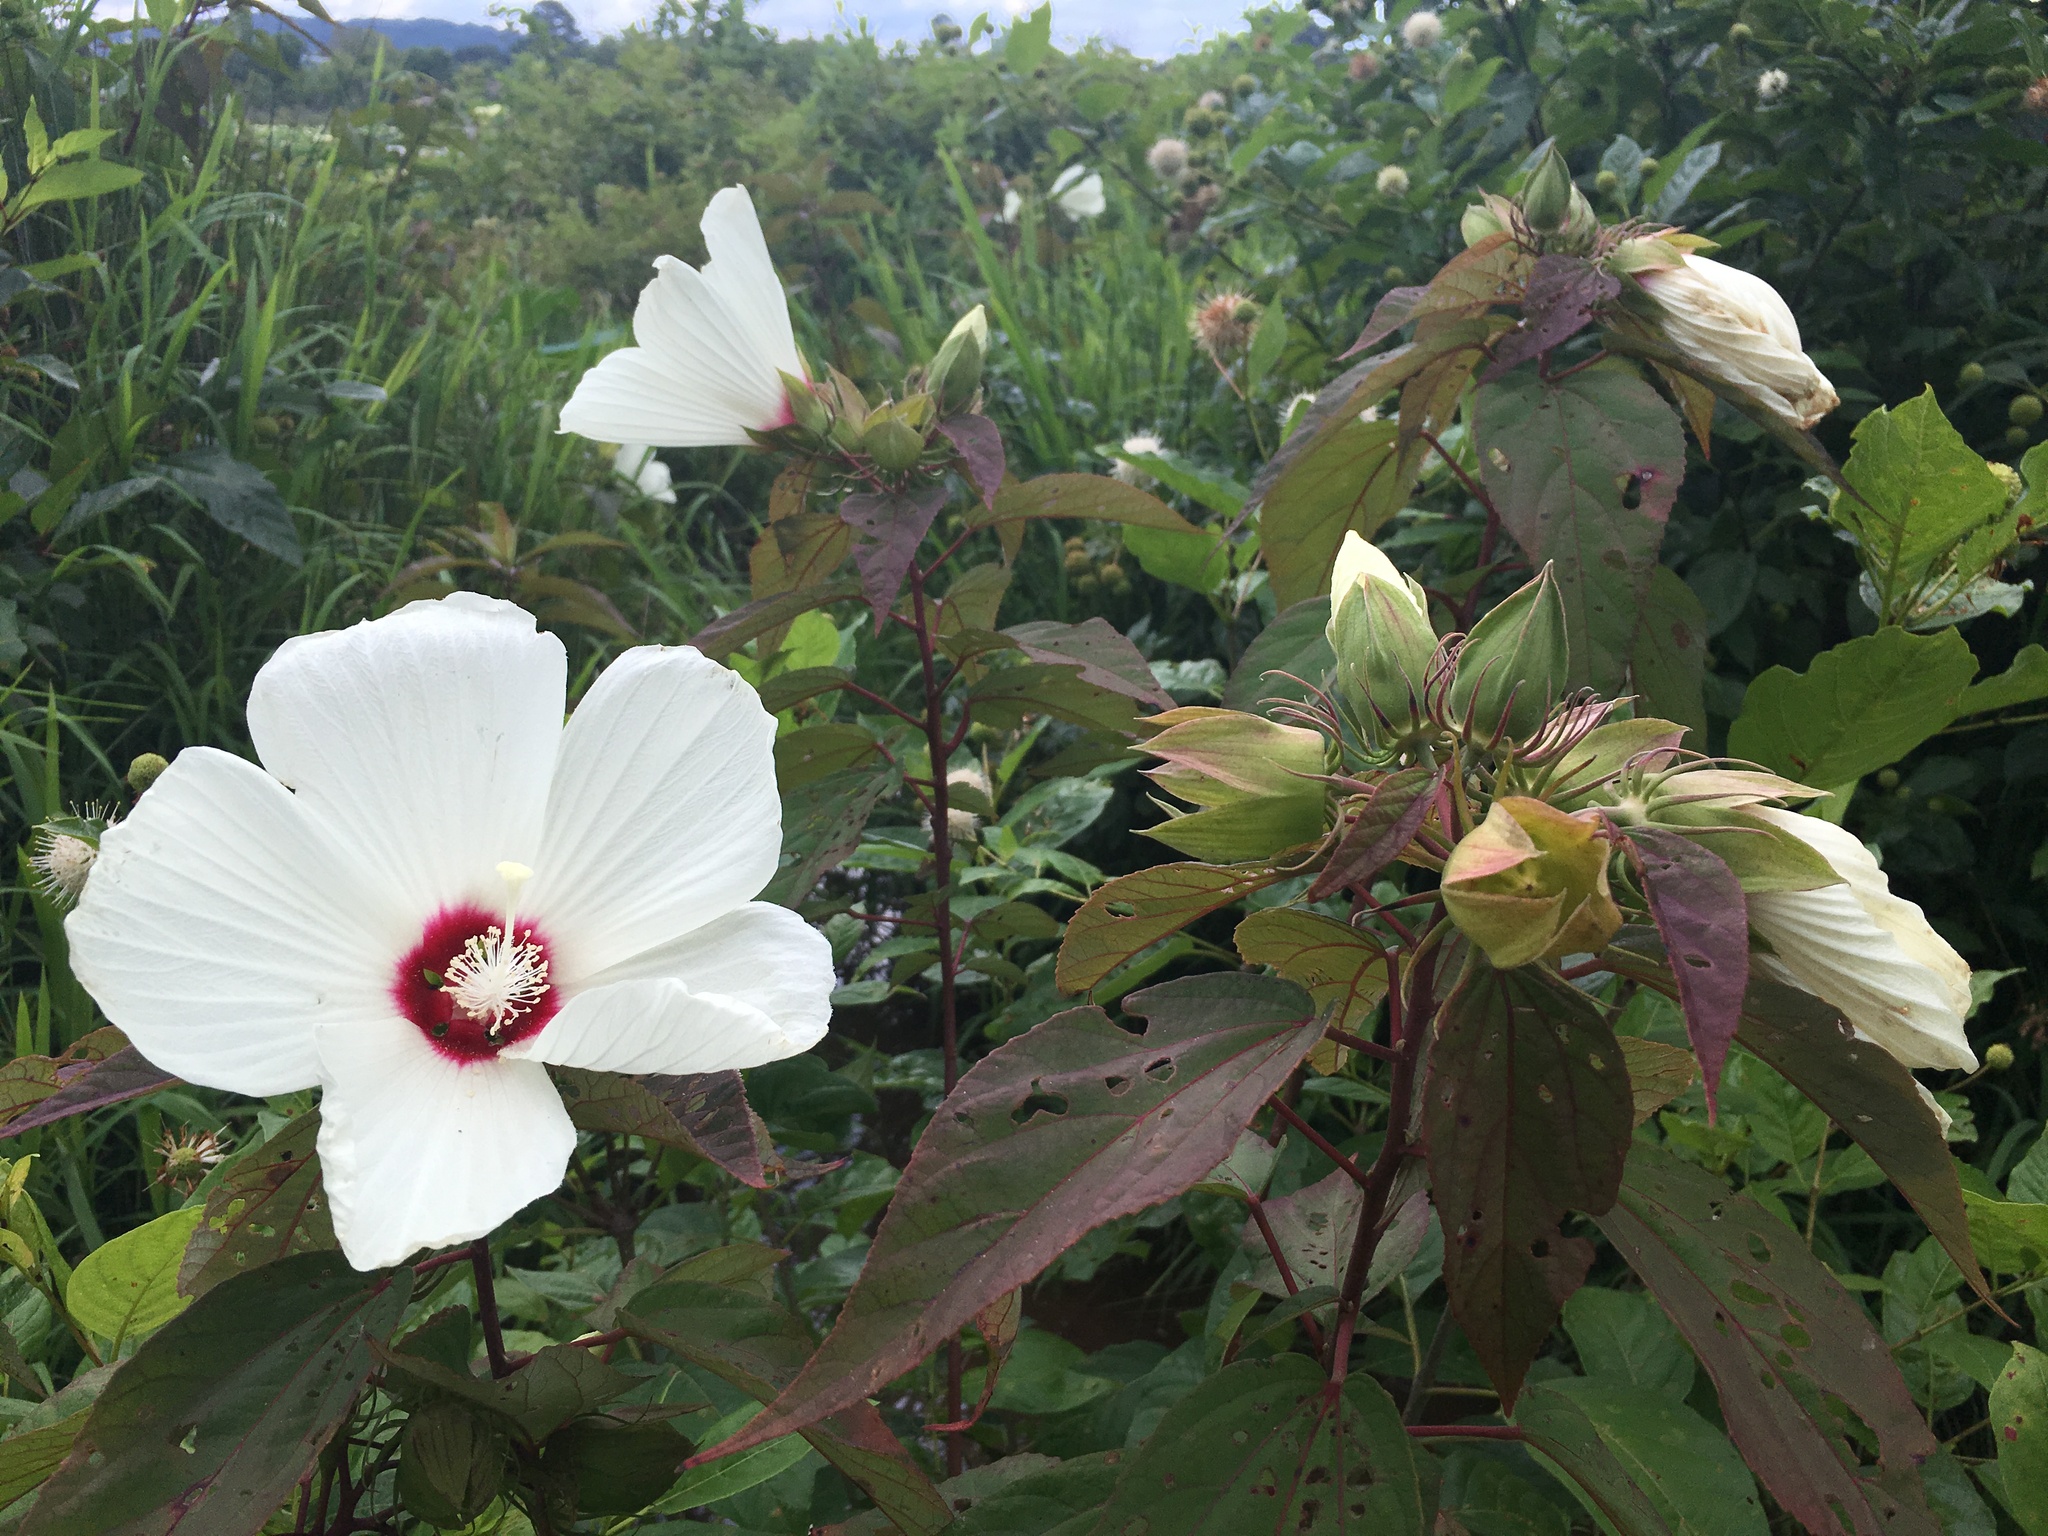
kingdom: Plantae
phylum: Tracheophyta
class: Magnoliopsida
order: Malvales
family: Malvaceae
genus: Hibiscus
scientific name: Hibiscus moscheutos
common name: Common rose-mallow
